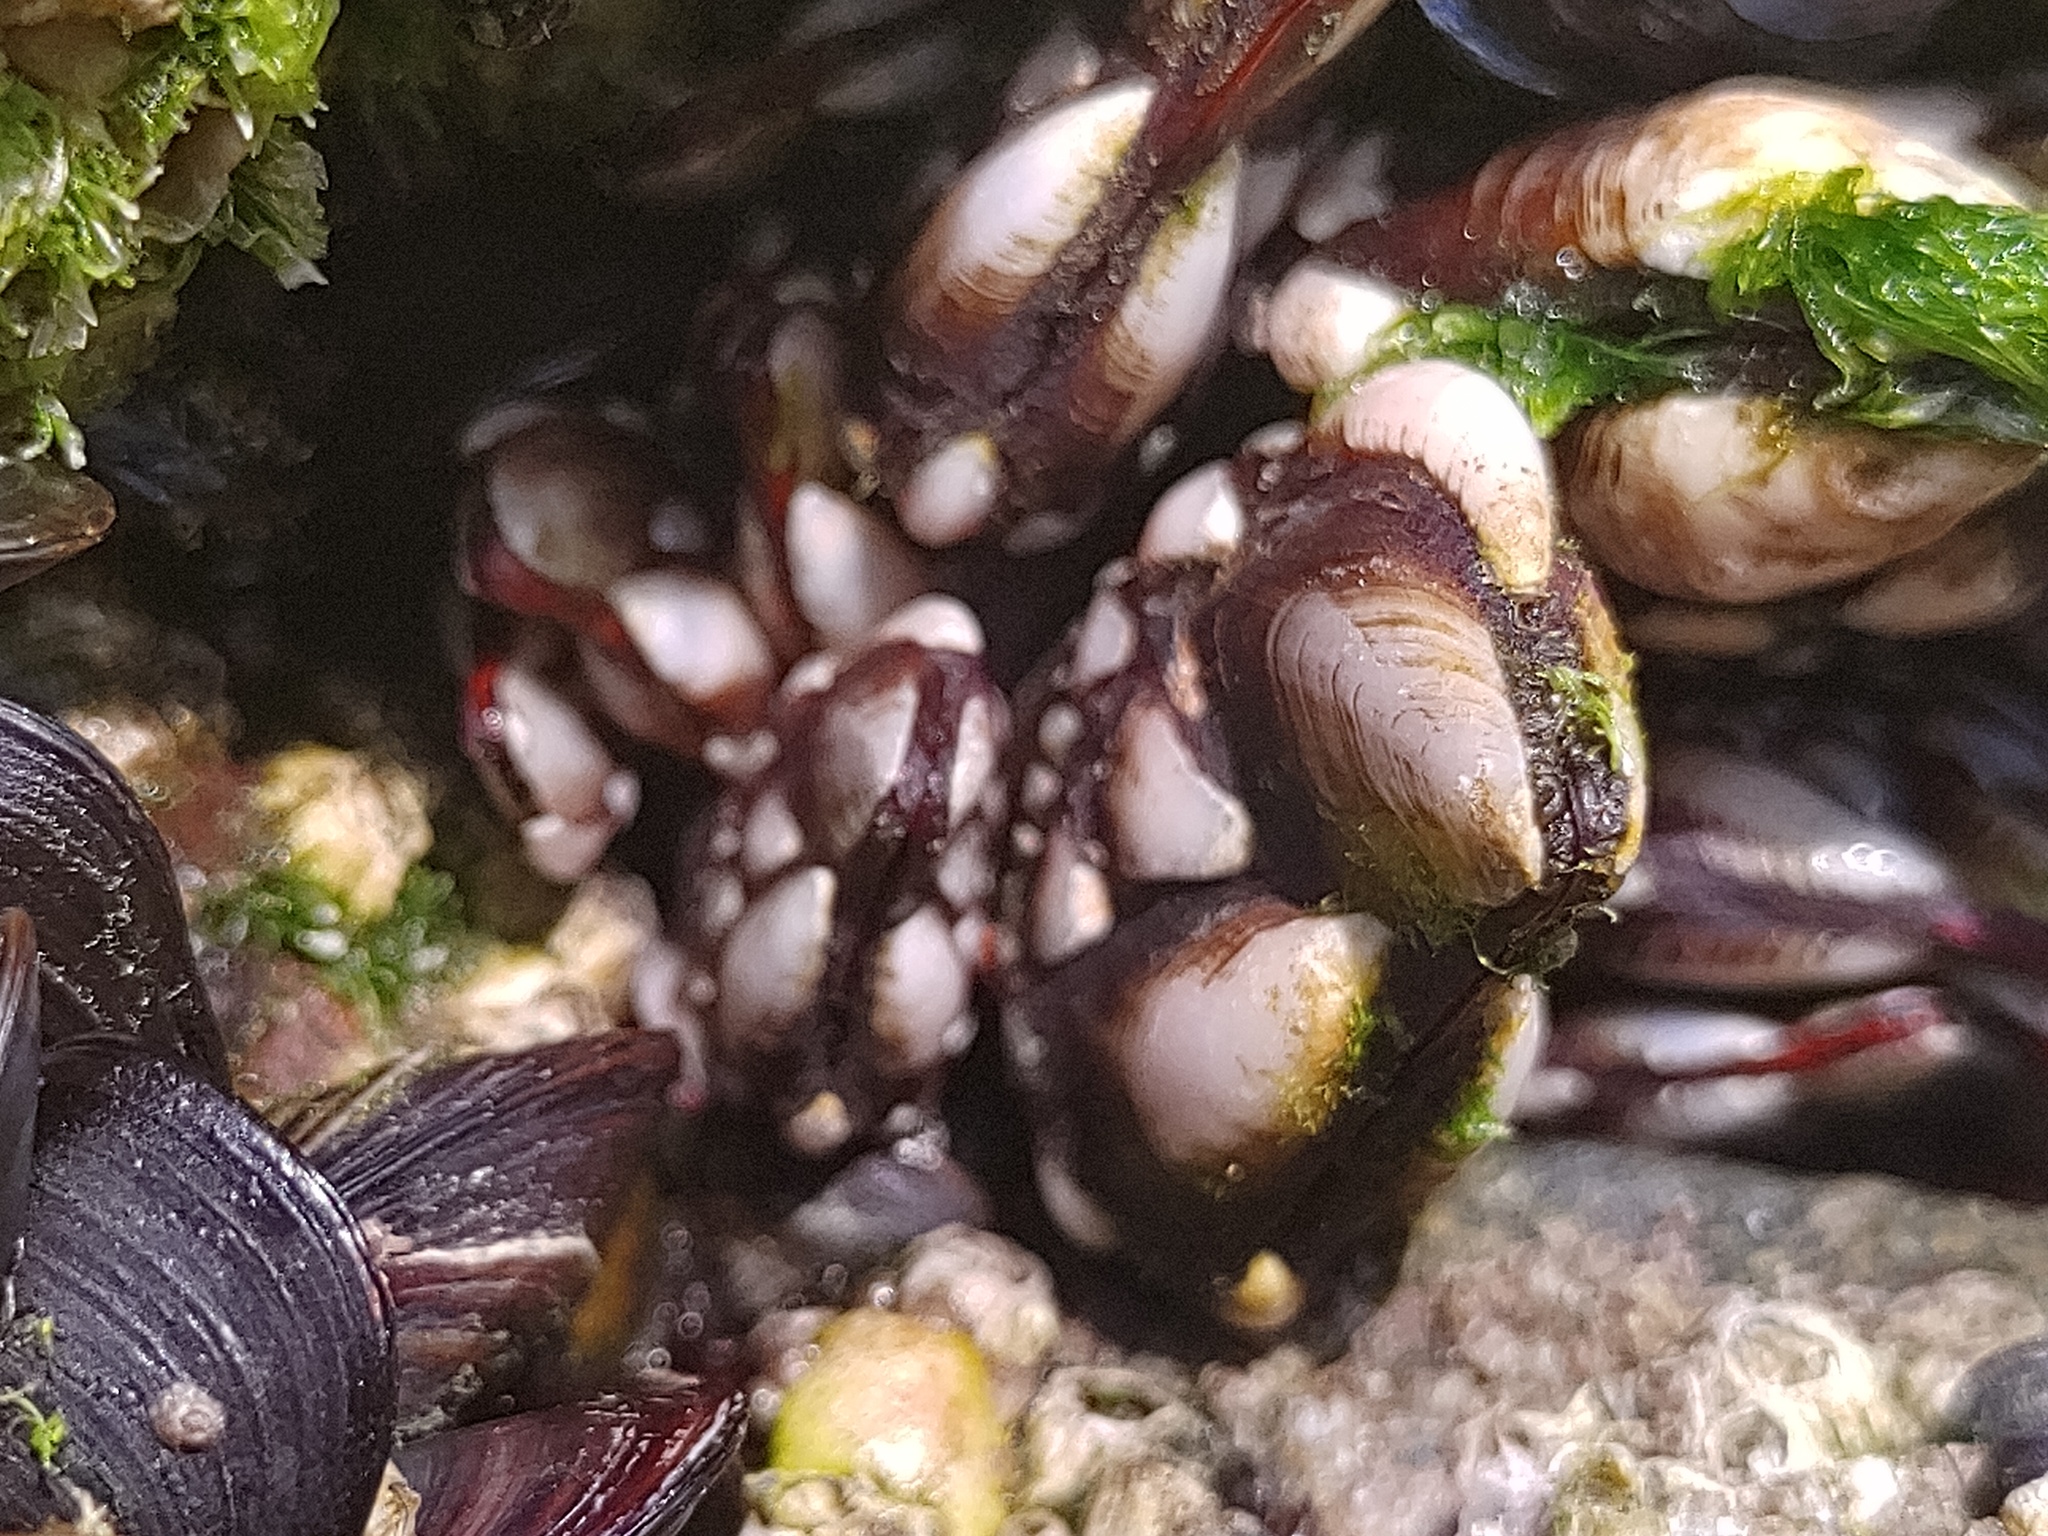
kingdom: Animalia
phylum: Arthropoda
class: Maxillopoda
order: Pedunculata
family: Pollicipedidae
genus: Pollicipes
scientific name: Pollicipes pollicipes
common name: Gooseneck barnacle
